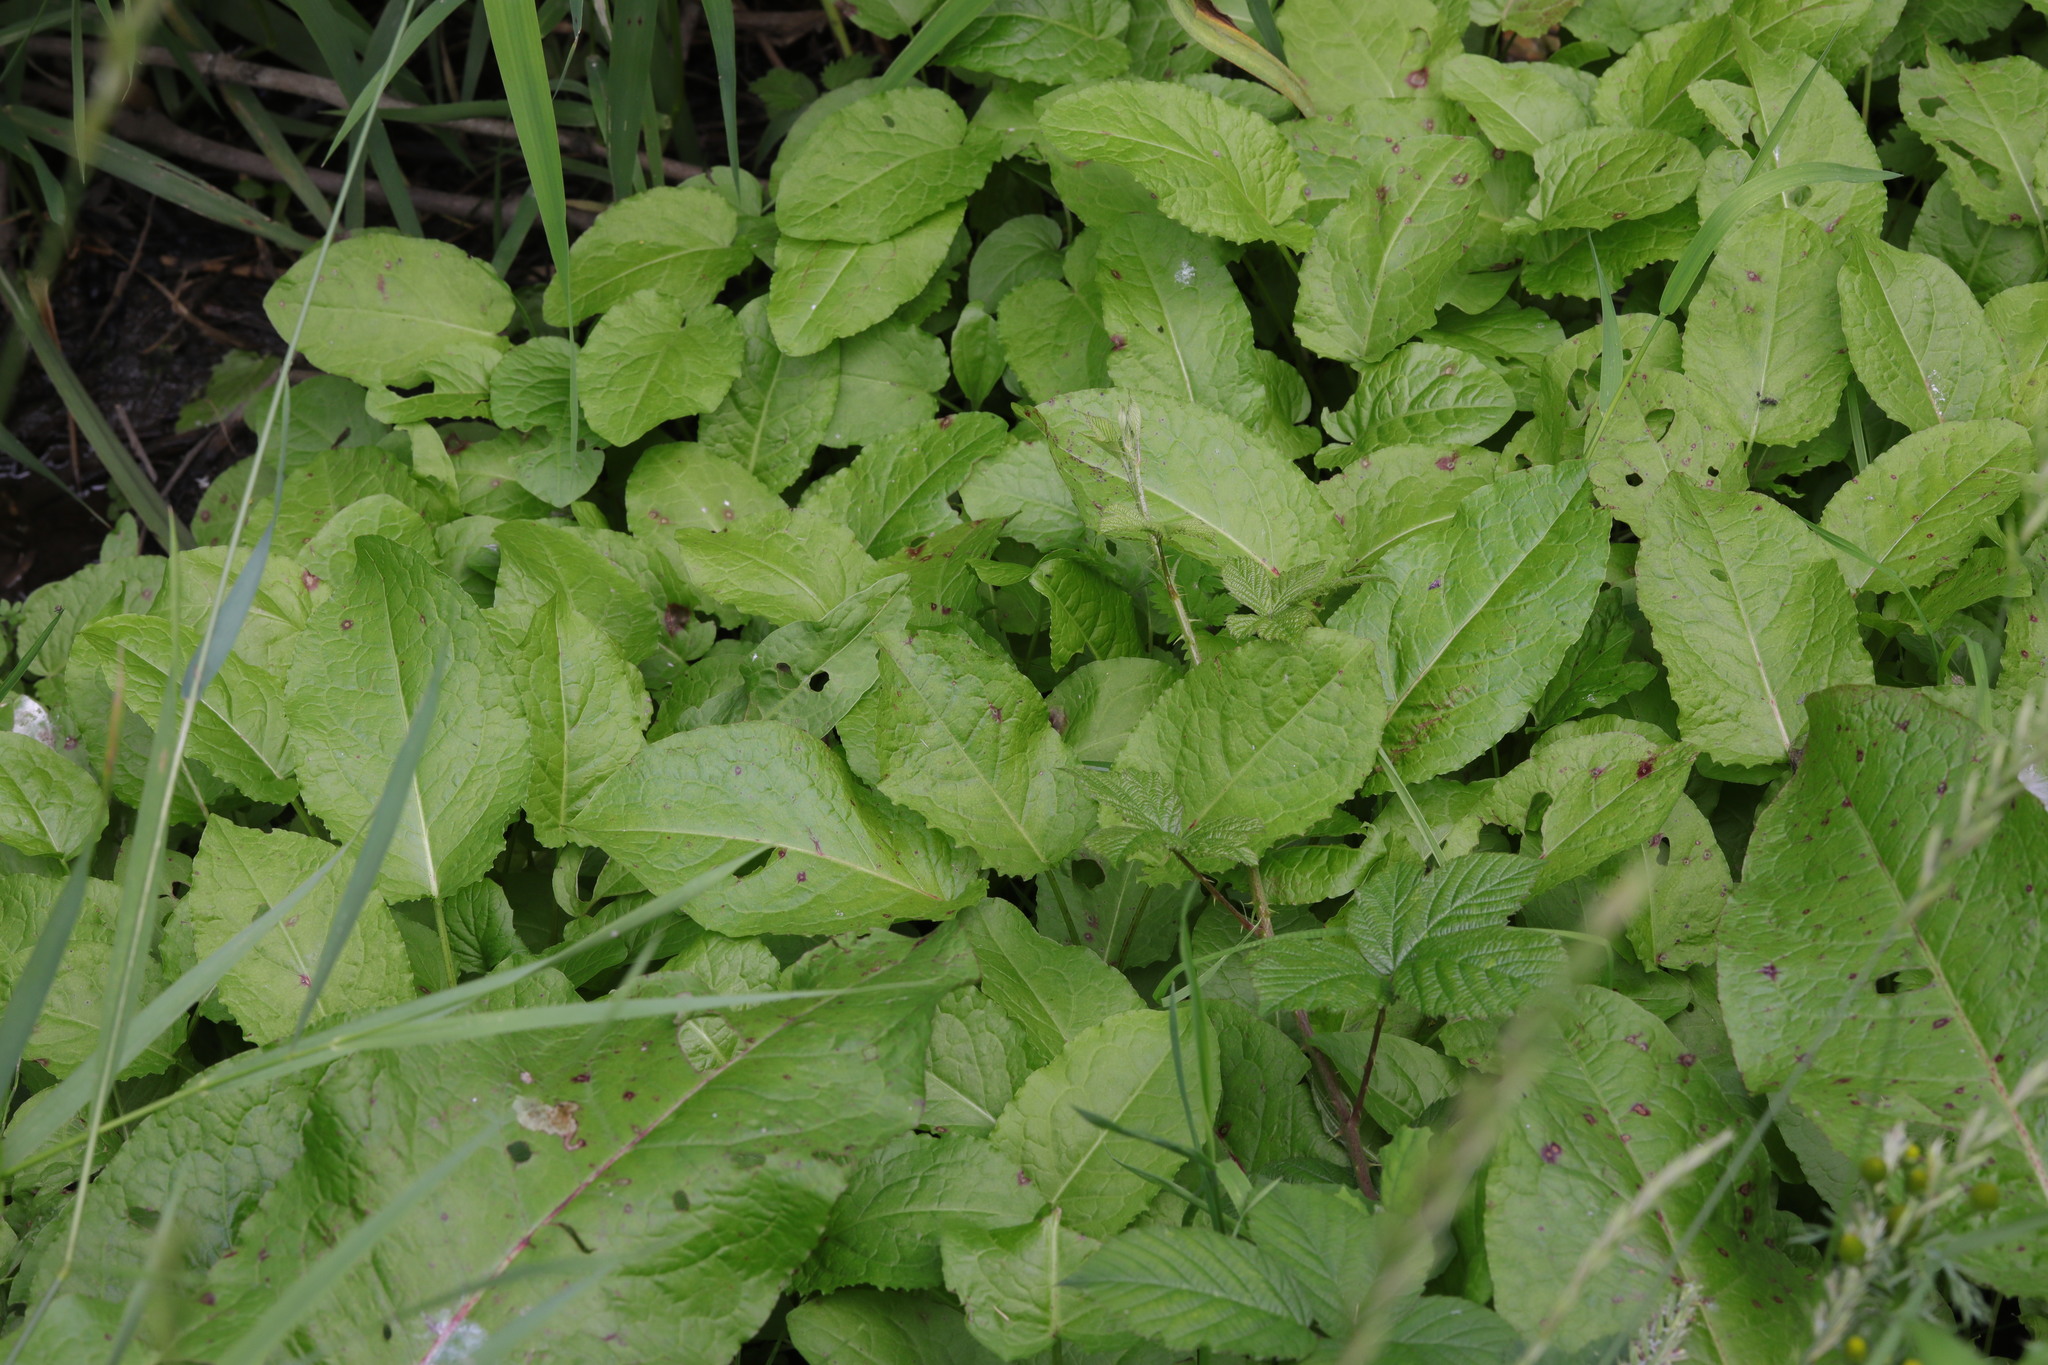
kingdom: Plantae
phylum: Tracheophyta
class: Magnoliopsida
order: Caryophyllales
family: Polygonaceae
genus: Rumex
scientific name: Rumex obtusifolius
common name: Bitter dock
